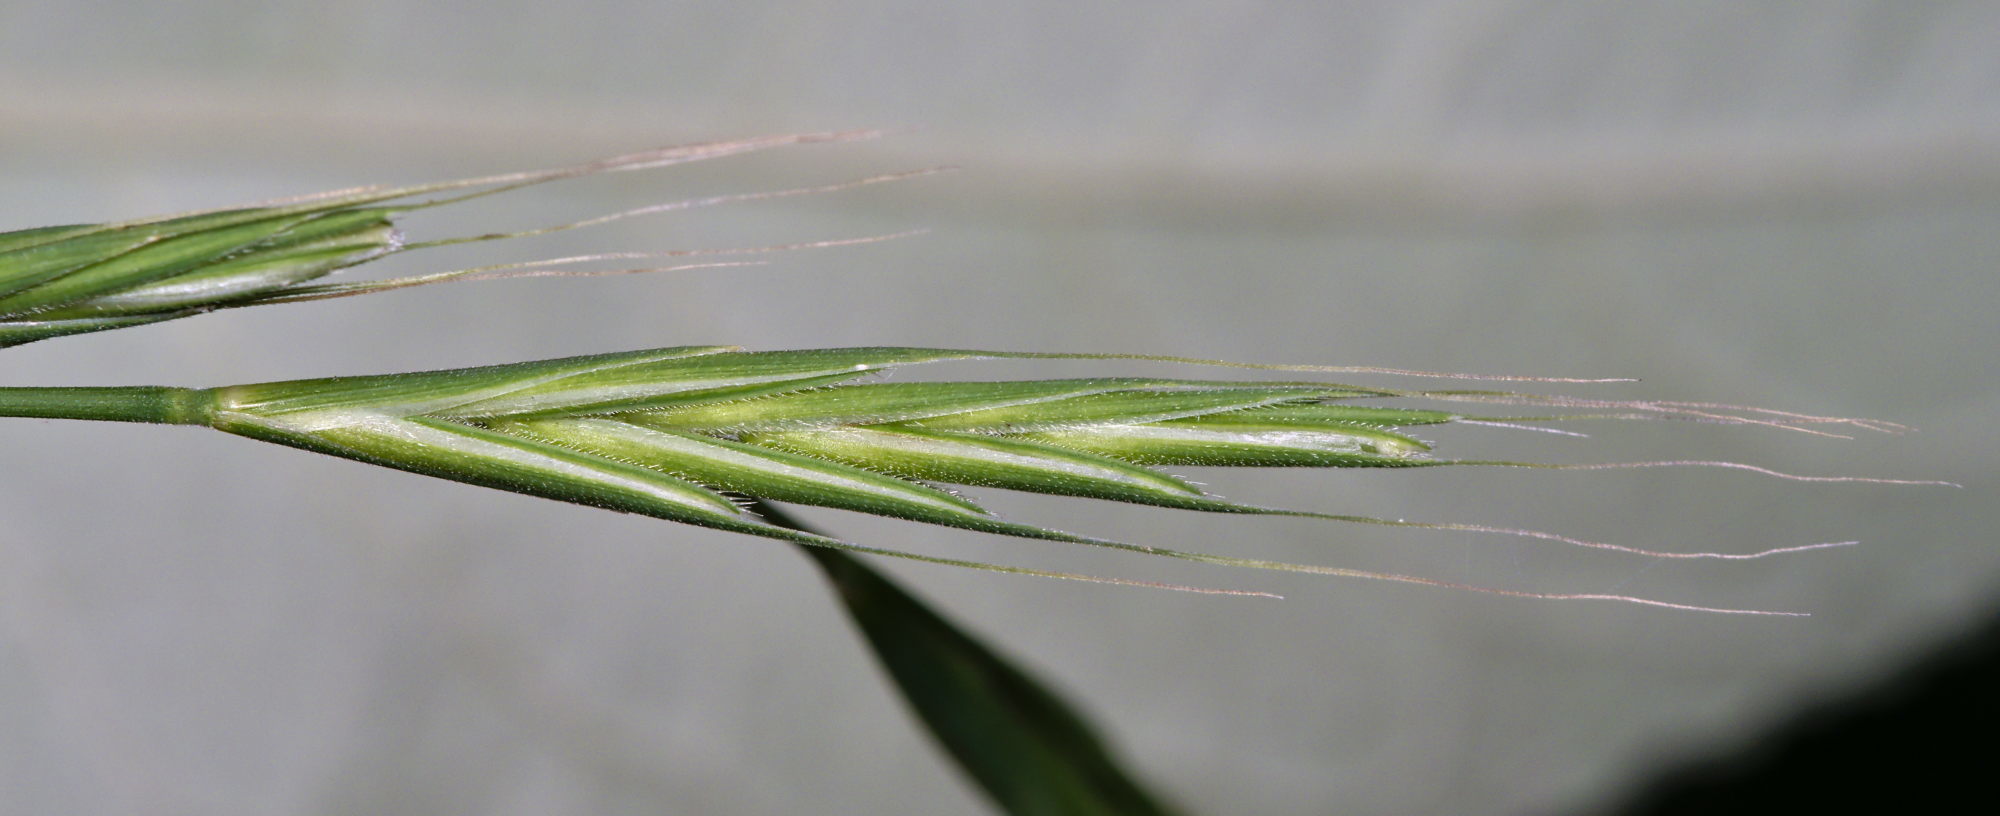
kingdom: Plantae
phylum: Tracheophyta
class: Liliopsida
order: Poales
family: Poaceae
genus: Brachypodium
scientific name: Brachypodium sylvaticum
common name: False-brome
